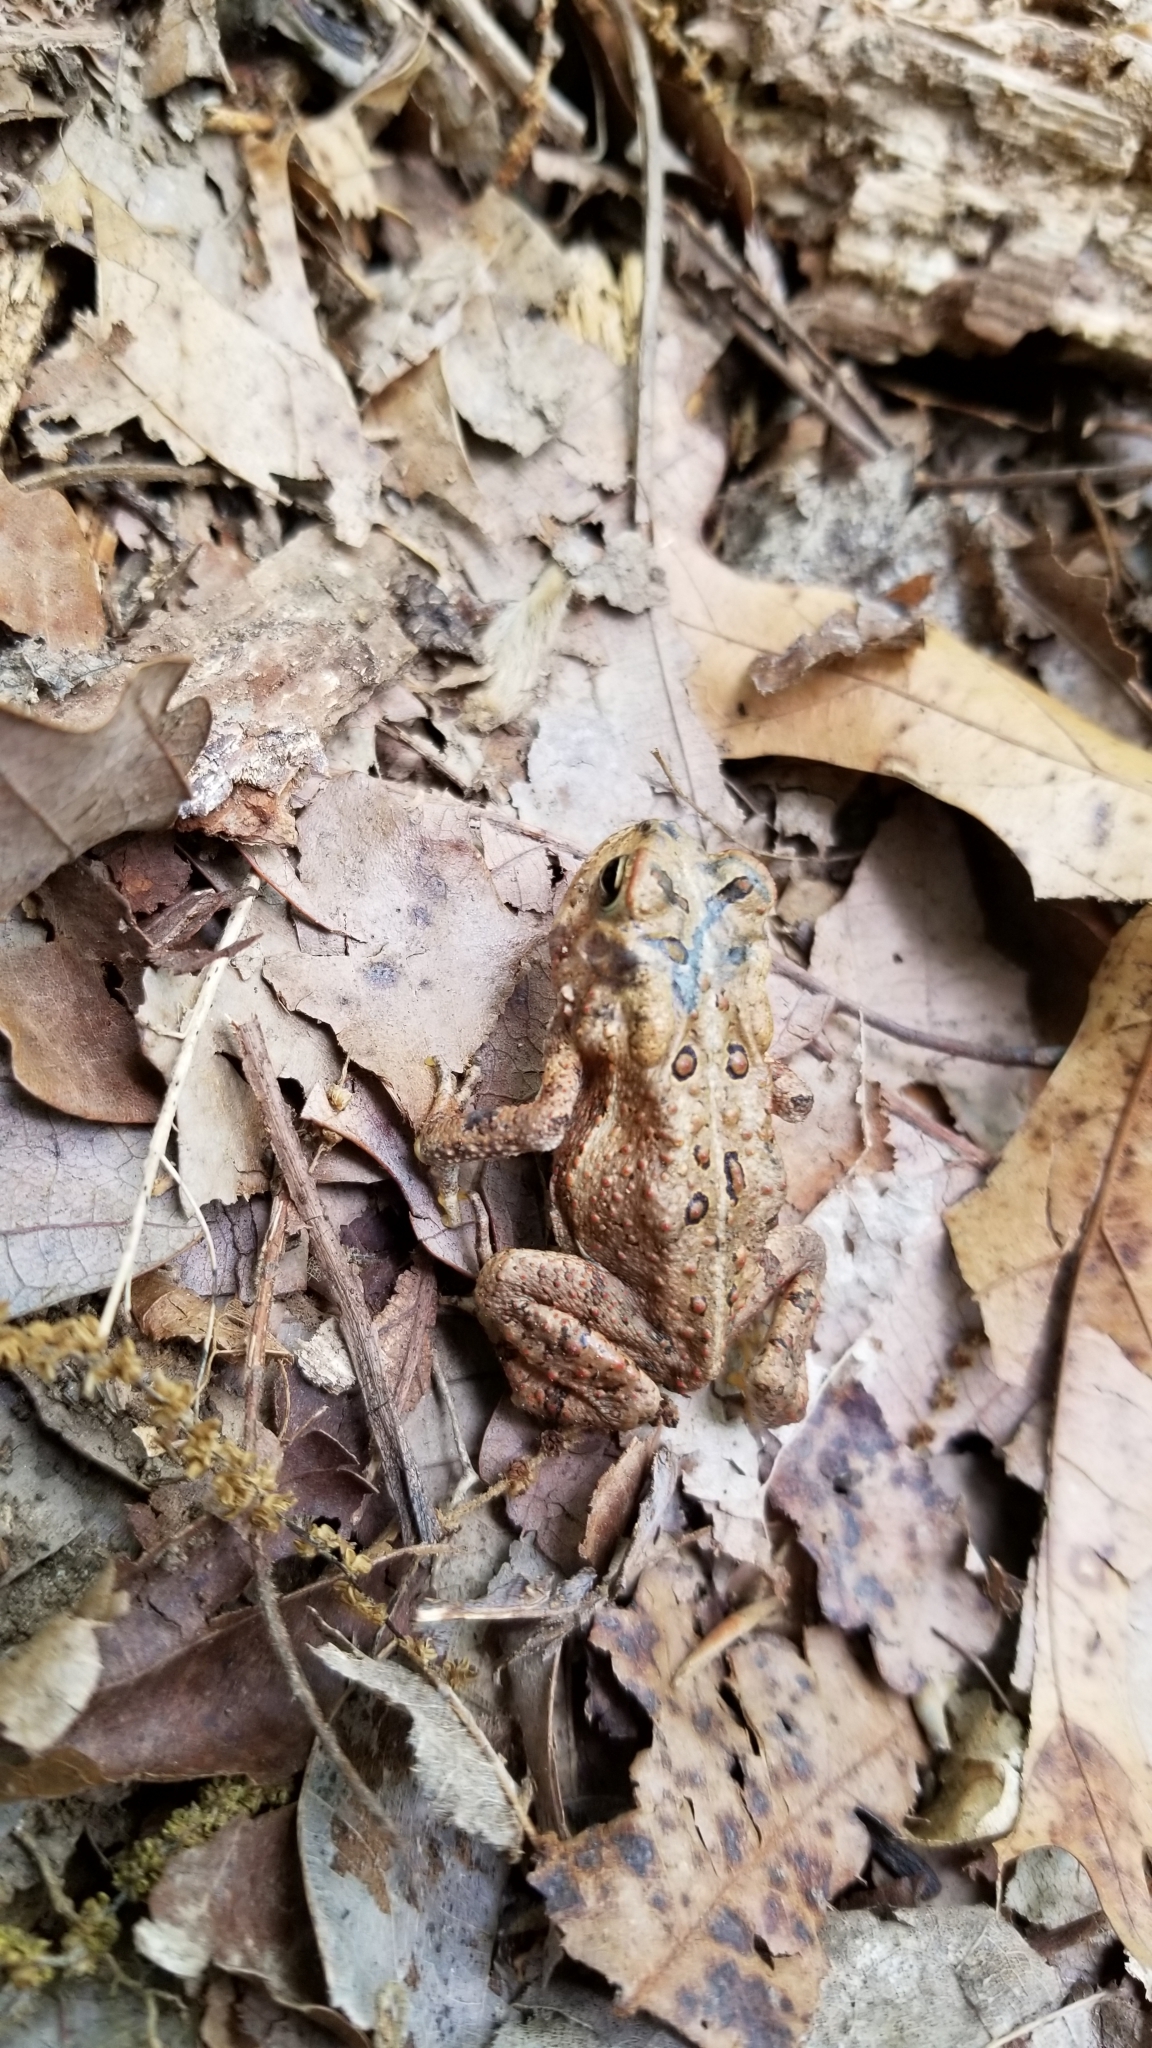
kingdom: Animalia
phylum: Chordata
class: Amphibia
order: Anura
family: Bufonidae
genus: Anaxyrus
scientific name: Anaxyrus americanus
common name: American toad
